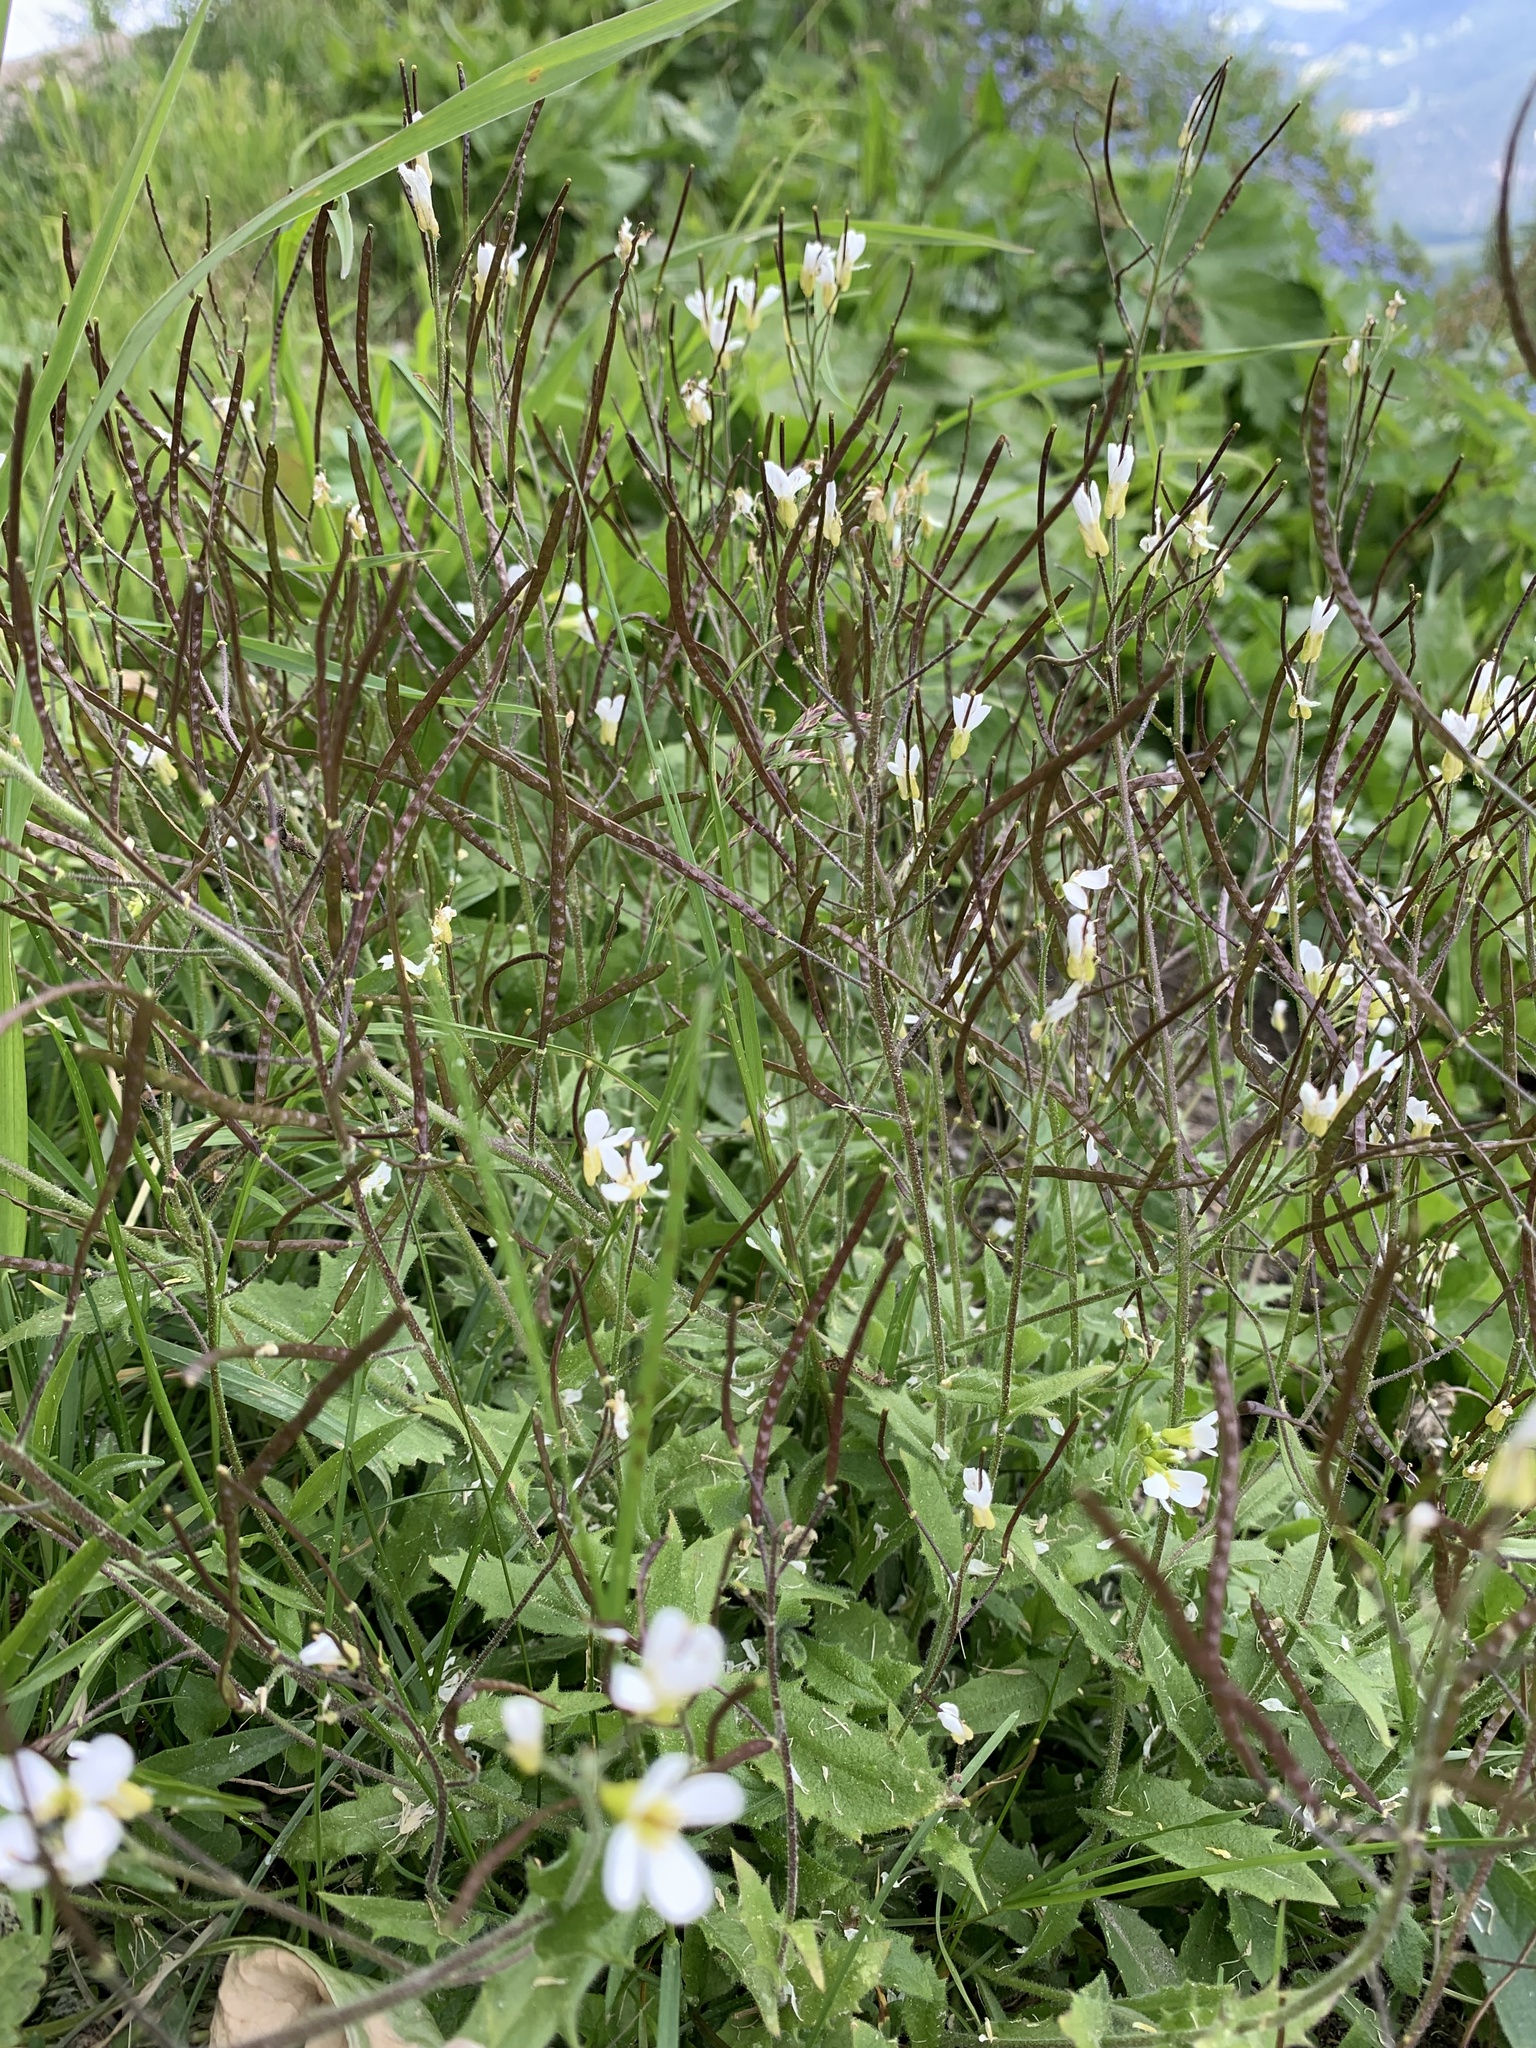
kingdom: Plantae
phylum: Tracheophyta
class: Magnoliopsida
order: Brassicales
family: Brassicaceae
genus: Arabis
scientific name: Arabis alpina
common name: Alpine rock-cress
